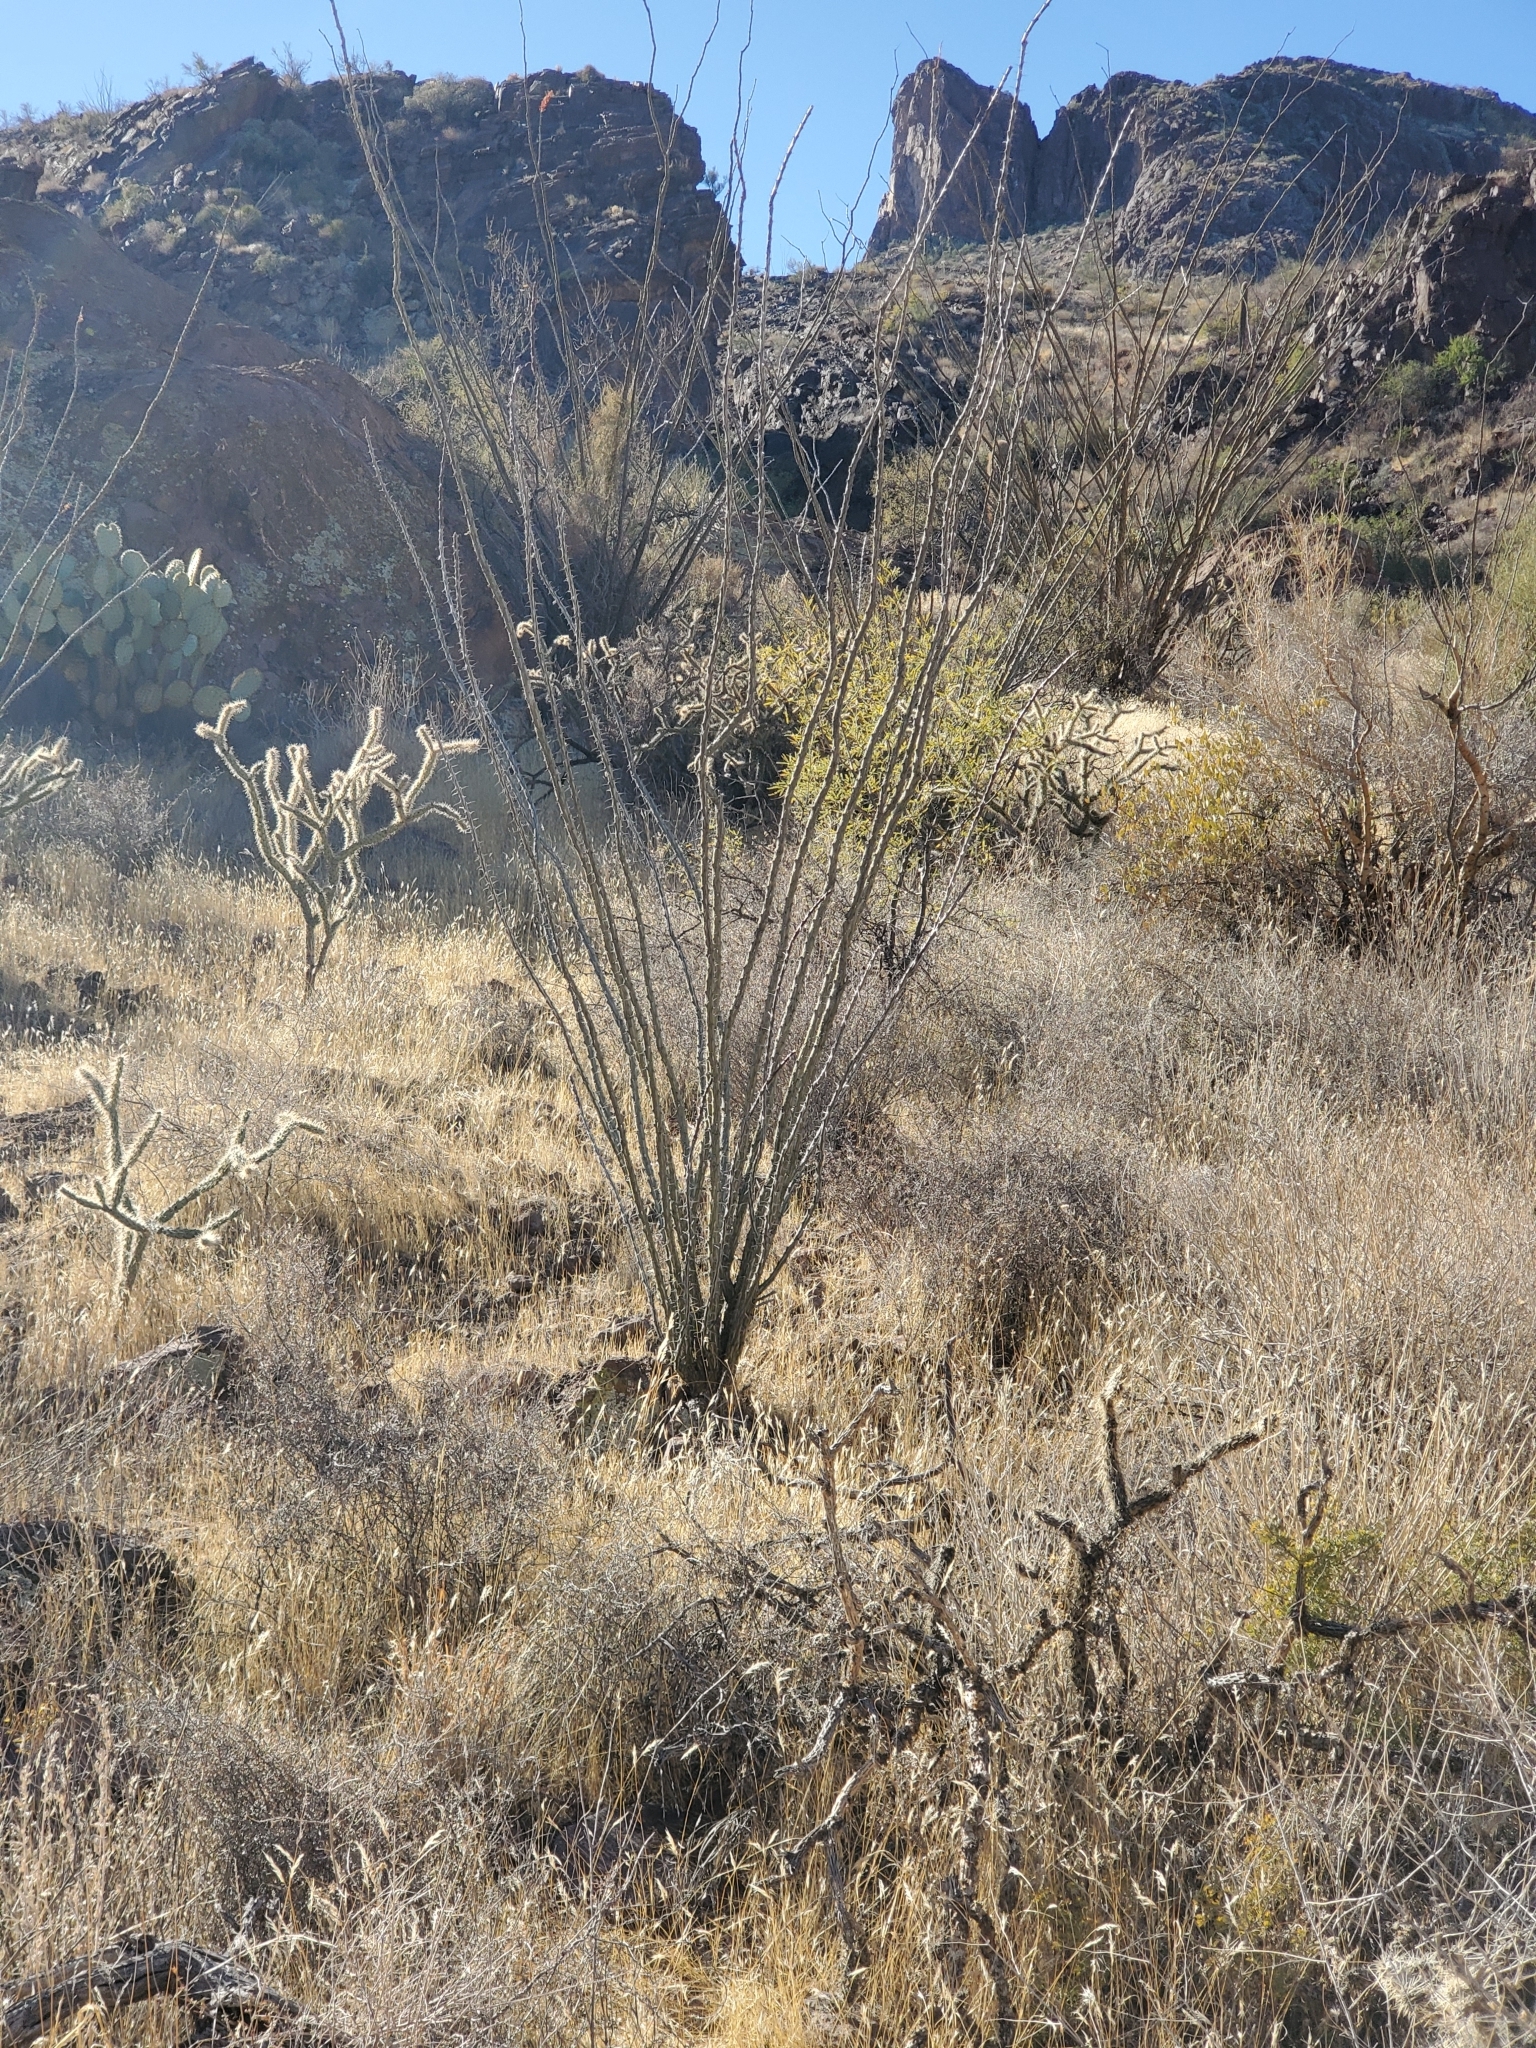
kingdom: Plantae
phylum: Tracheophyta
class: Magnoliopsida
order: Ericales
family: Fouquieriaceae
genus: Fouquieria
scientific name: Fouquieria splendens
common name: Vine-cactus
